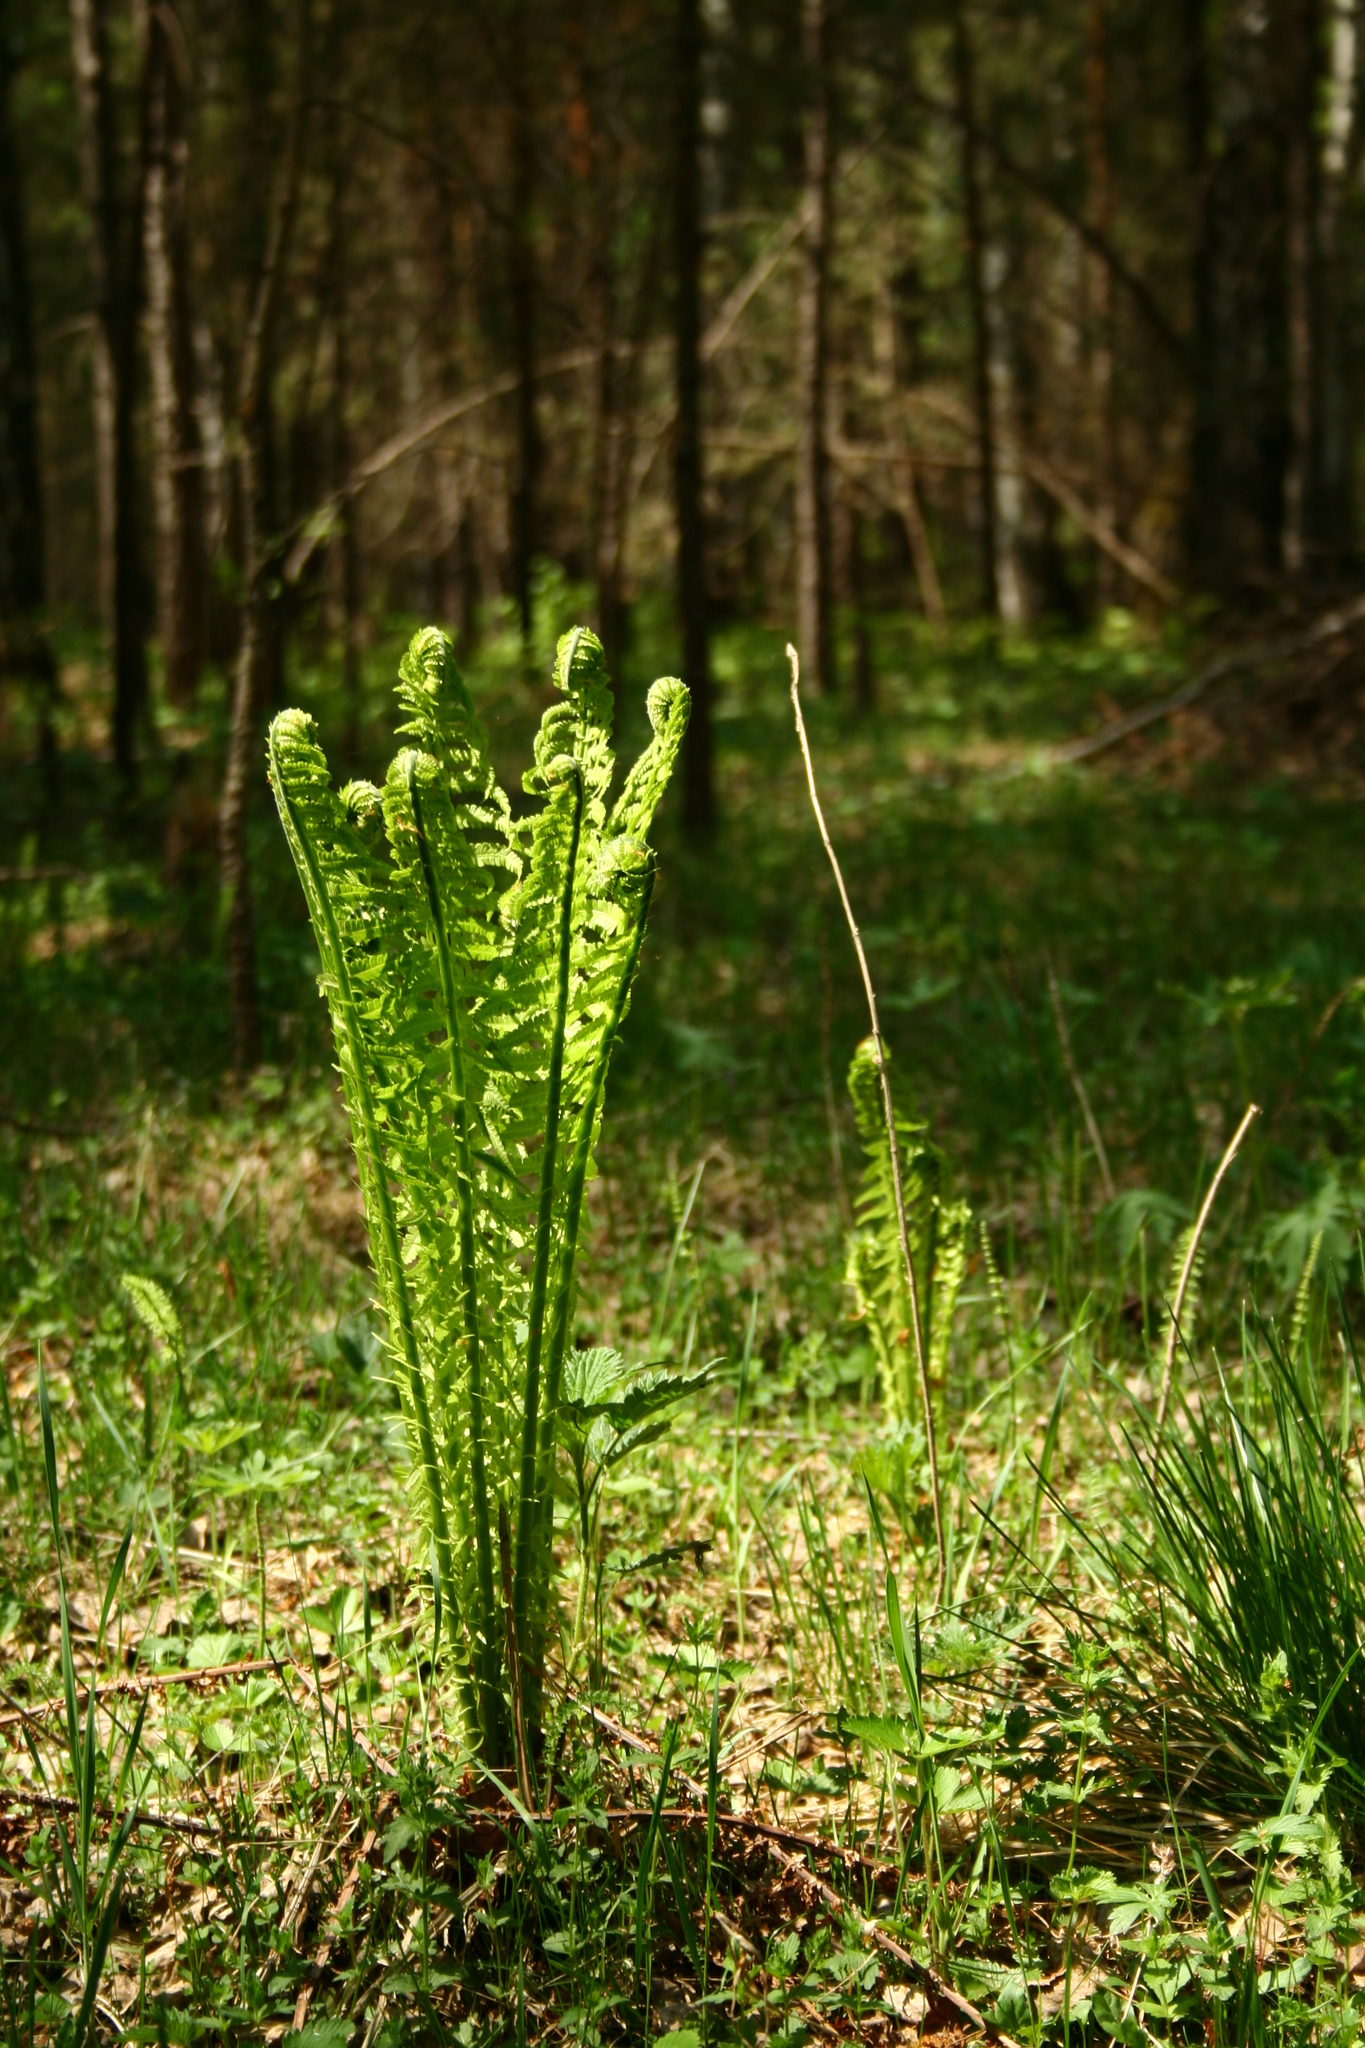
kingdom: Plantae
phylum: Tracheophyta
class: Polypodiopsida
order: Polypodiales
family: Onocleaceae
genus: Matteuccia
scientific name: Matteuccia struthiopteris
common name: Ostrich fern
